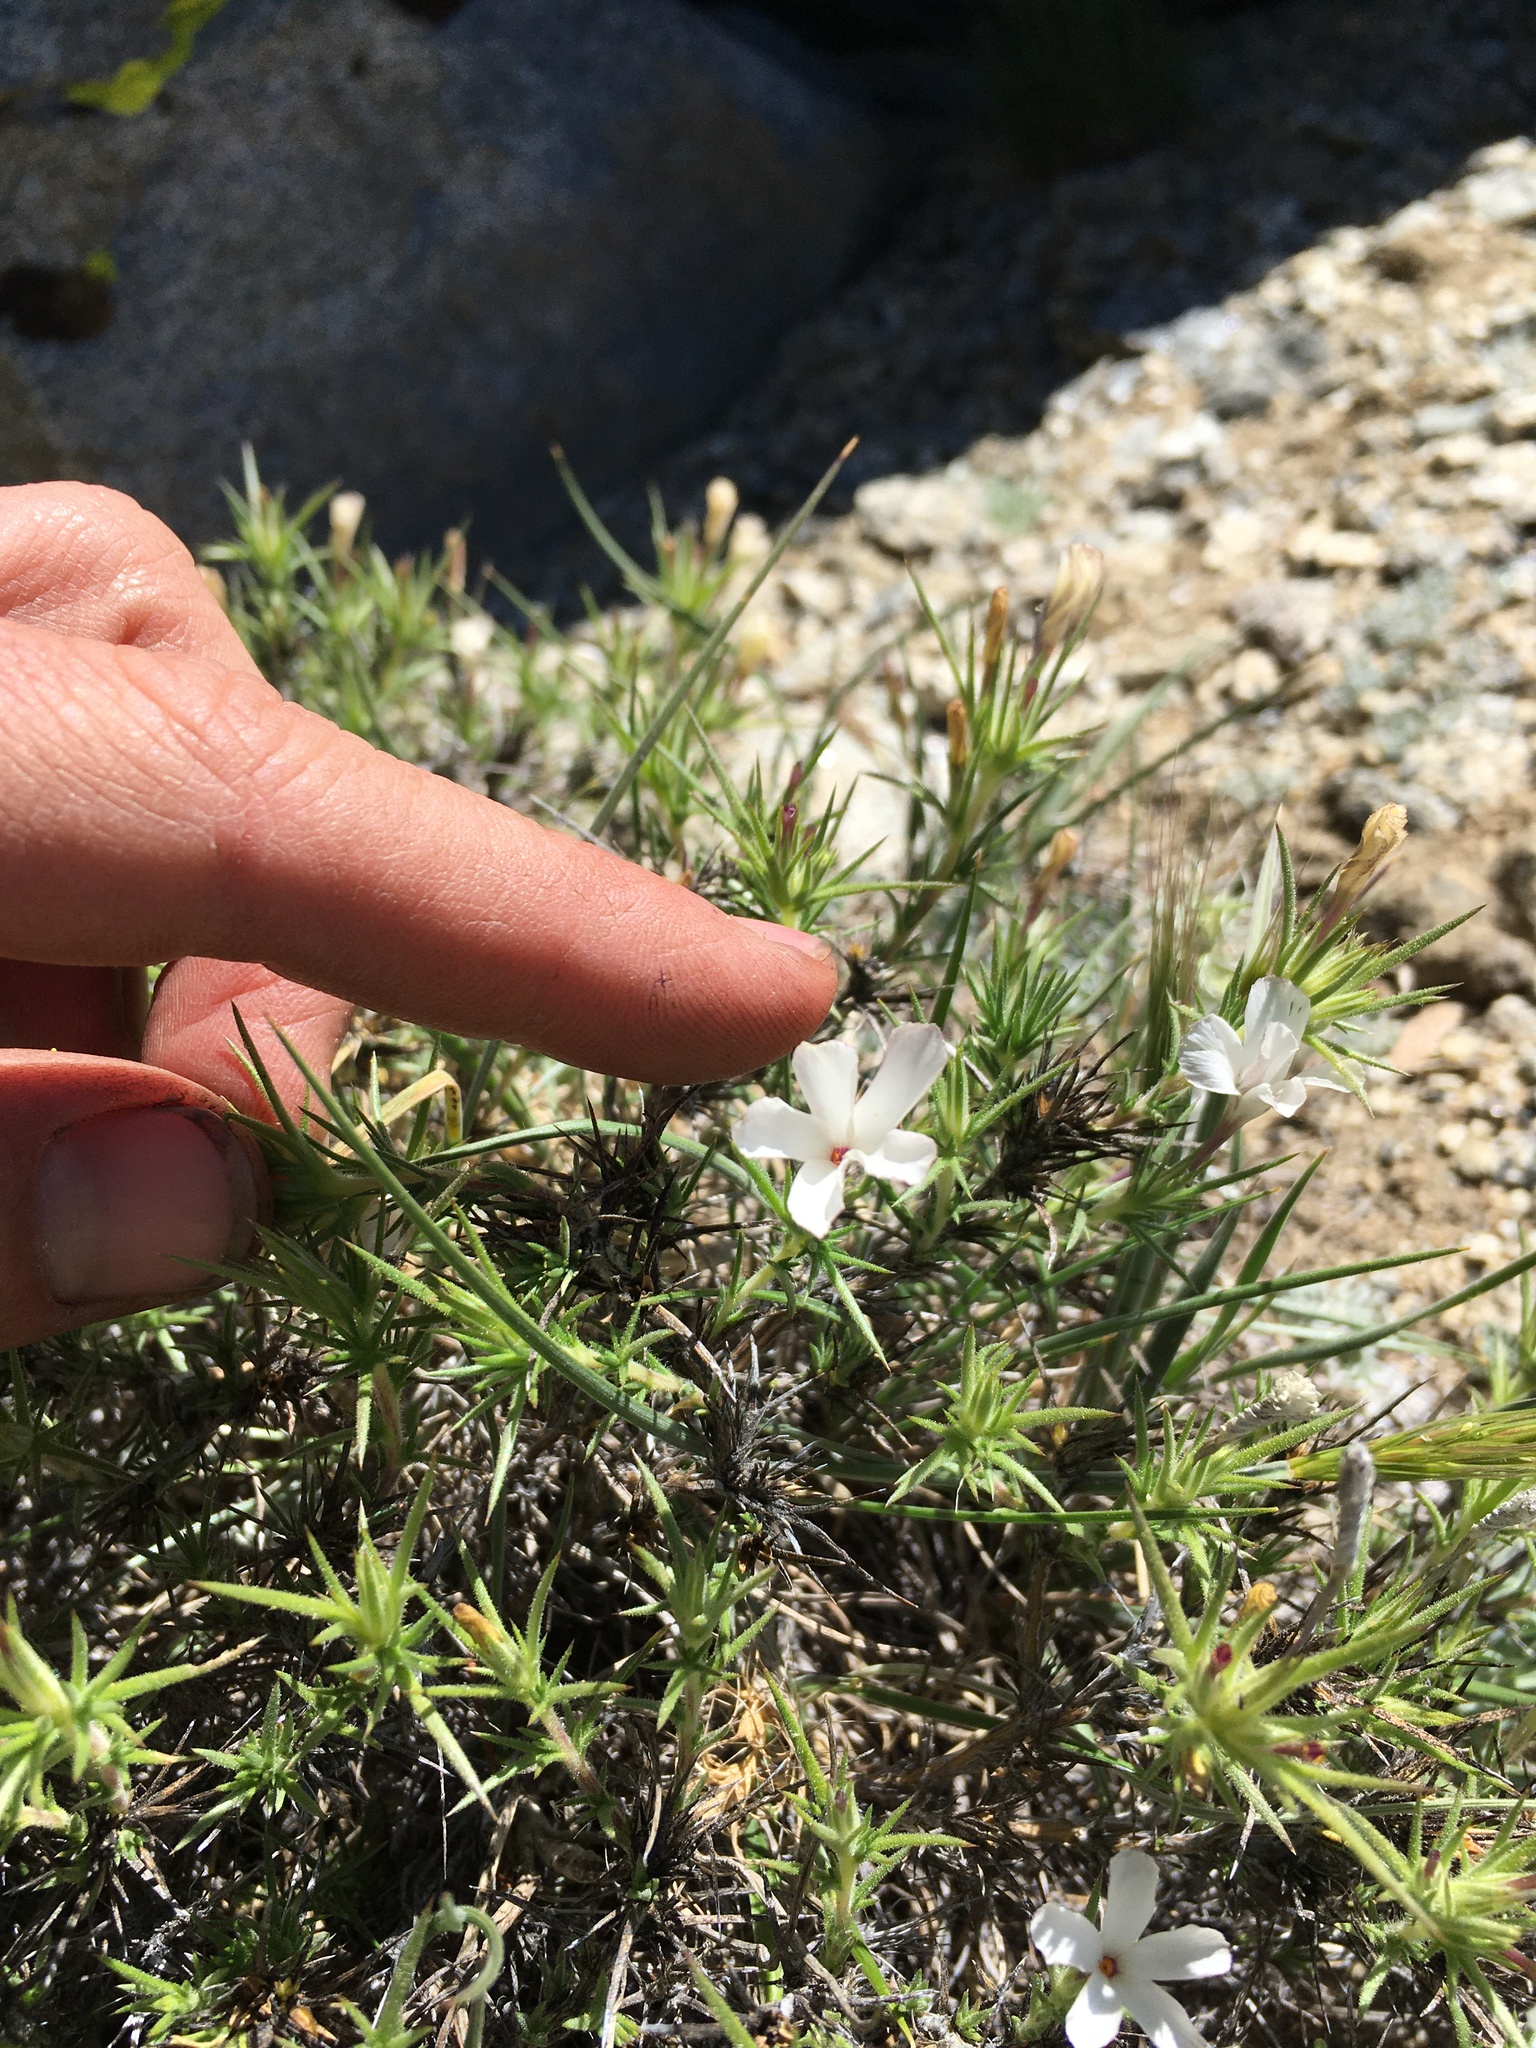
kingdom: Plantae
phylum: Tracheophyta
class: Magnoliopsida
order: Ericales
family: Polemoniaceae
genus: Linanthus
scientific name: Linanthus pungens
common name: Granite prickly phlox
